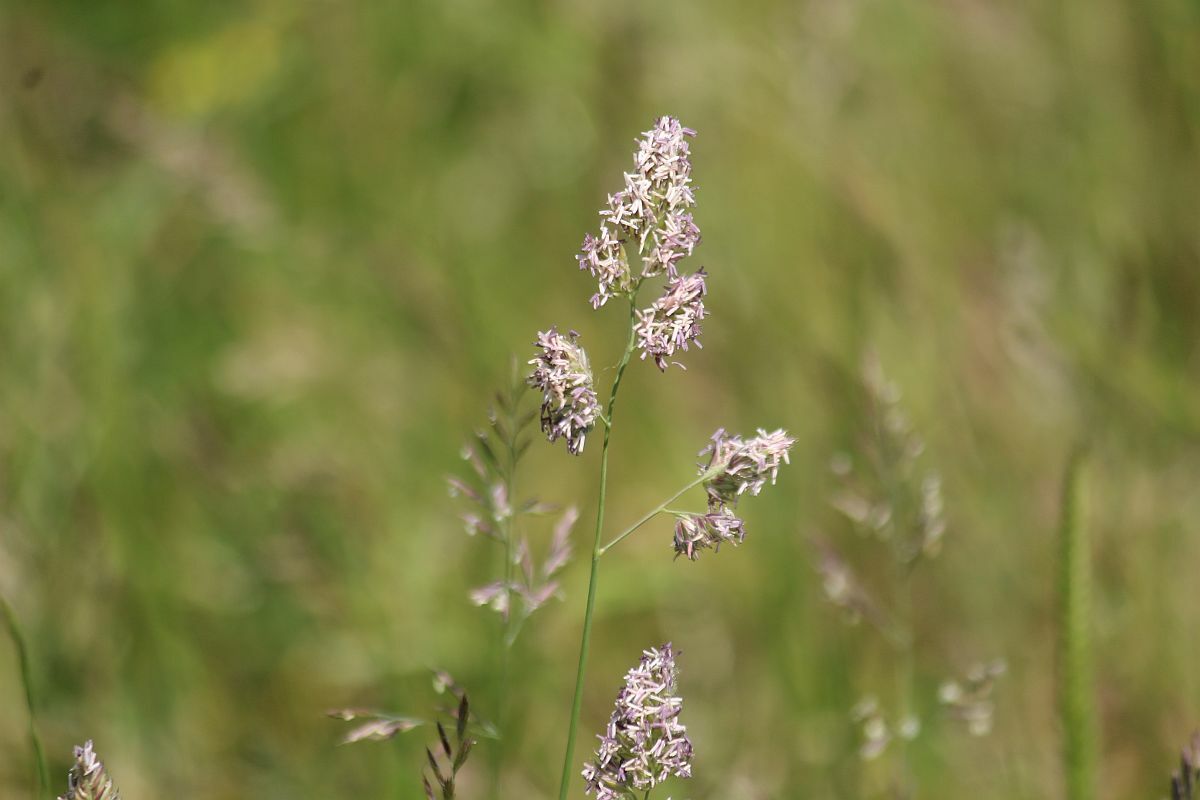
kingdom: Plantae
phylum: Tracheophyta
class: Liliopsida
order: Poales
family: Poaceae
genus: Dactylis
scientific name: Dactylis glomerata
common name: Orchardgrass
